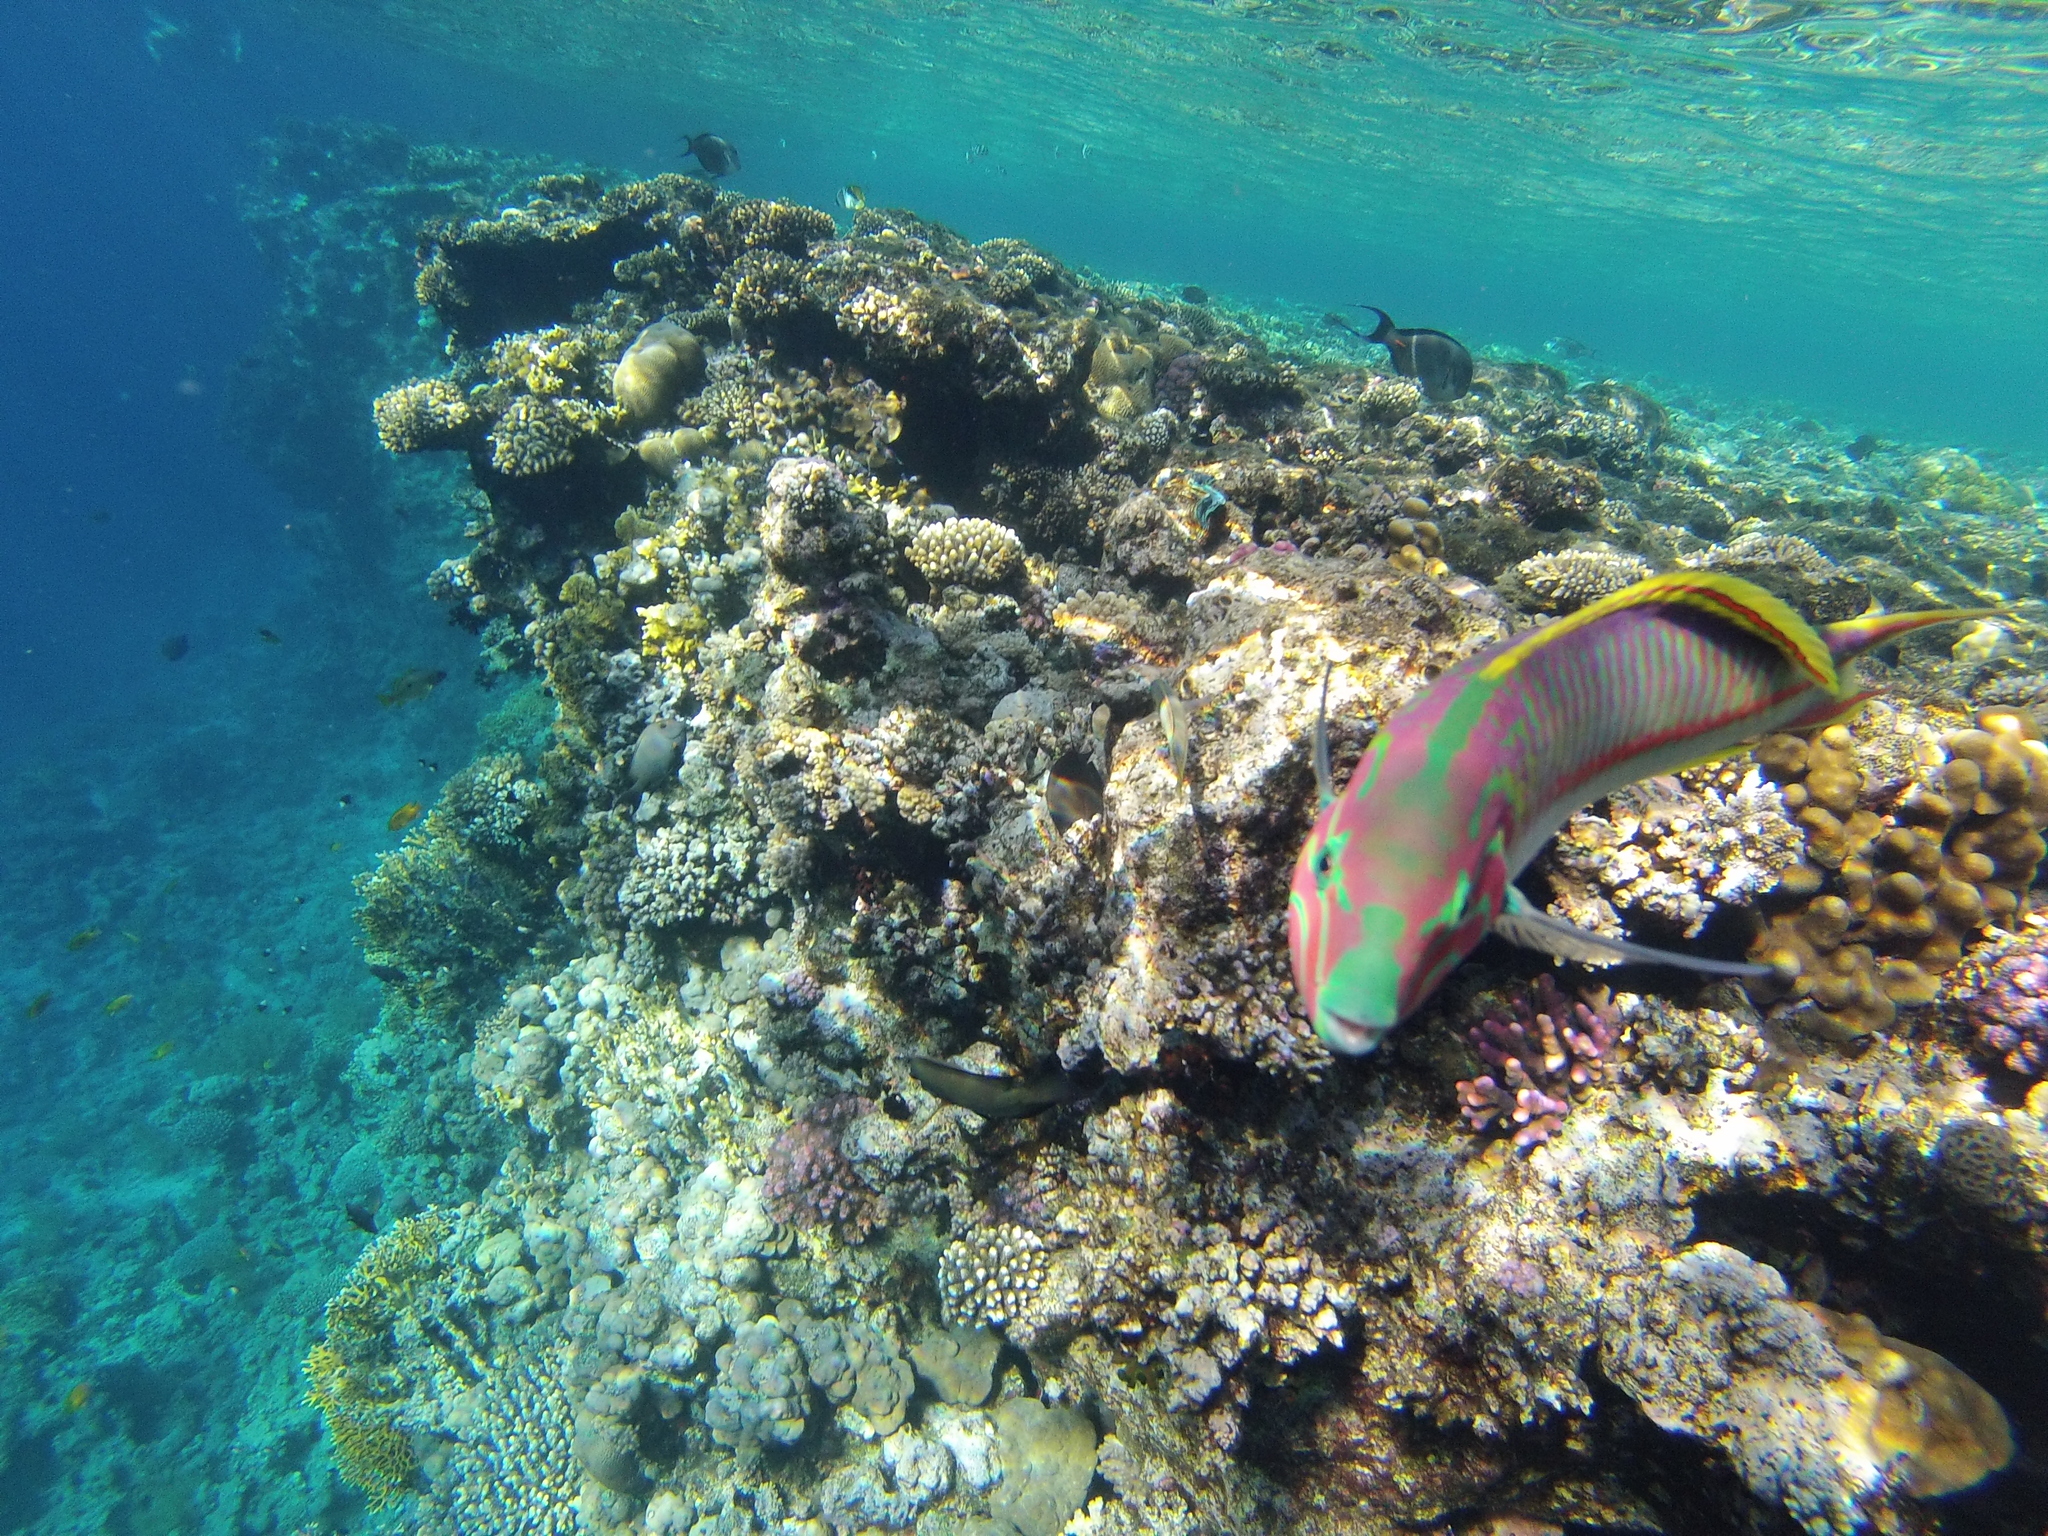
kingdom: Animalia
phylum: Chordata
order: Perciformes
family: Labridae
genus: Thalassoma
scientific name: Thalassoma rueppellii
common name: Klunzinger's wrasse
